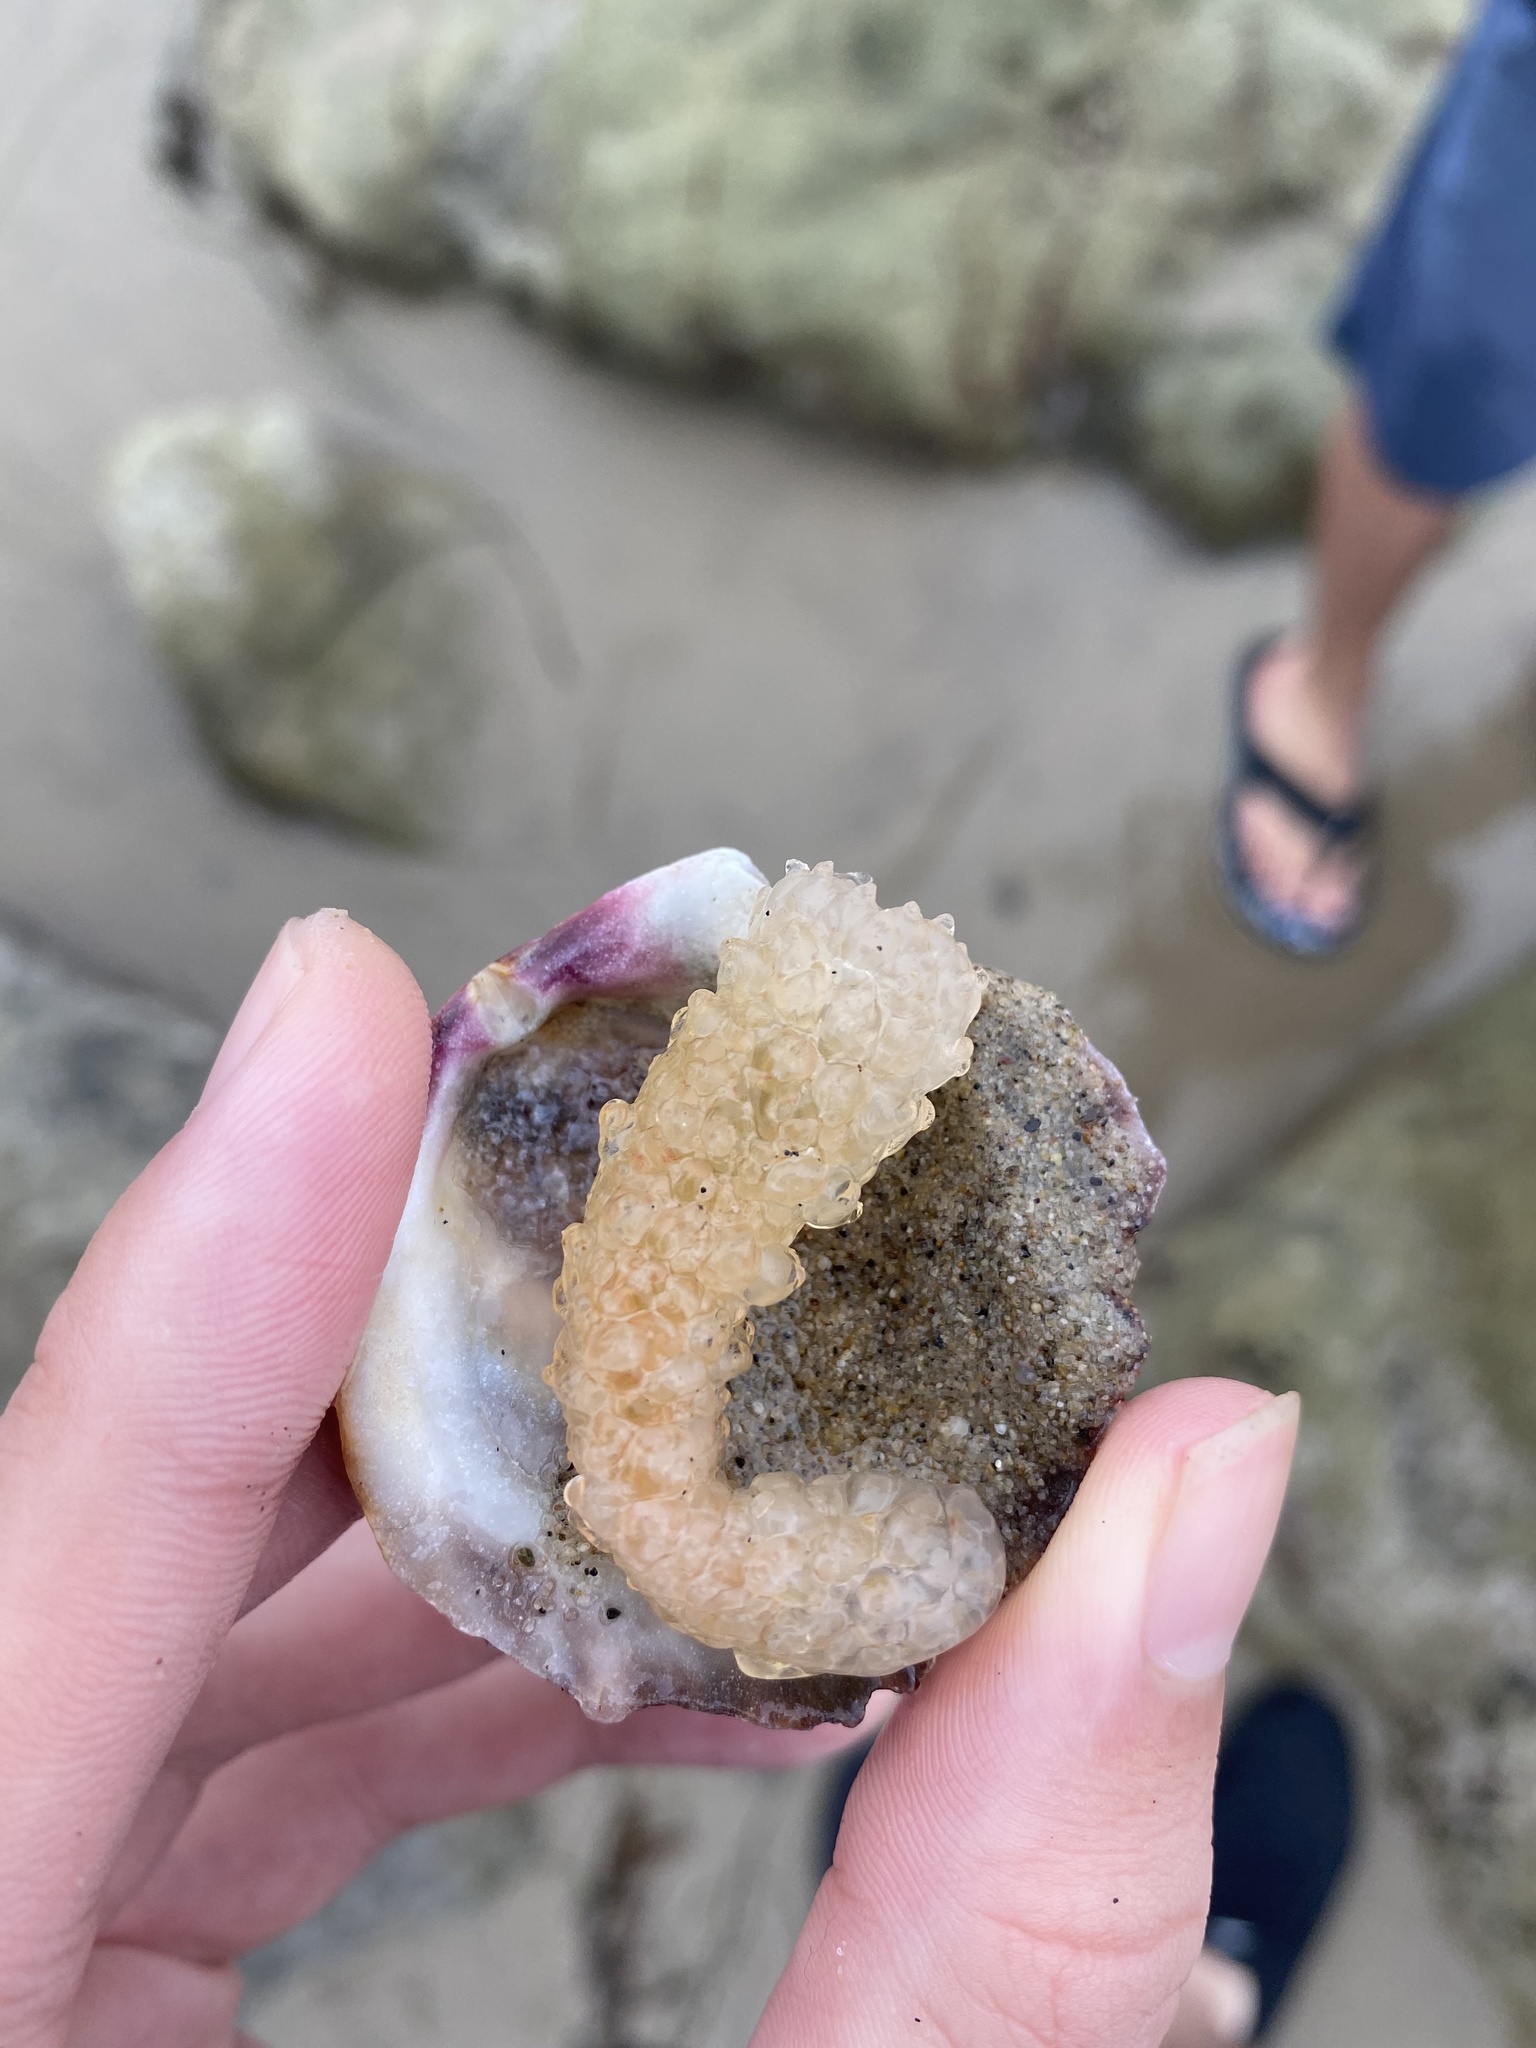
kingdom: Animalia
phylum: Chordata
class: Thaliacea
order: Pyrosomatida
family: Pyrosomatidae
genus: Pyrosoma
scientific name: Pyrosoma atlanticum
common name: Atlantic pyrosomes
